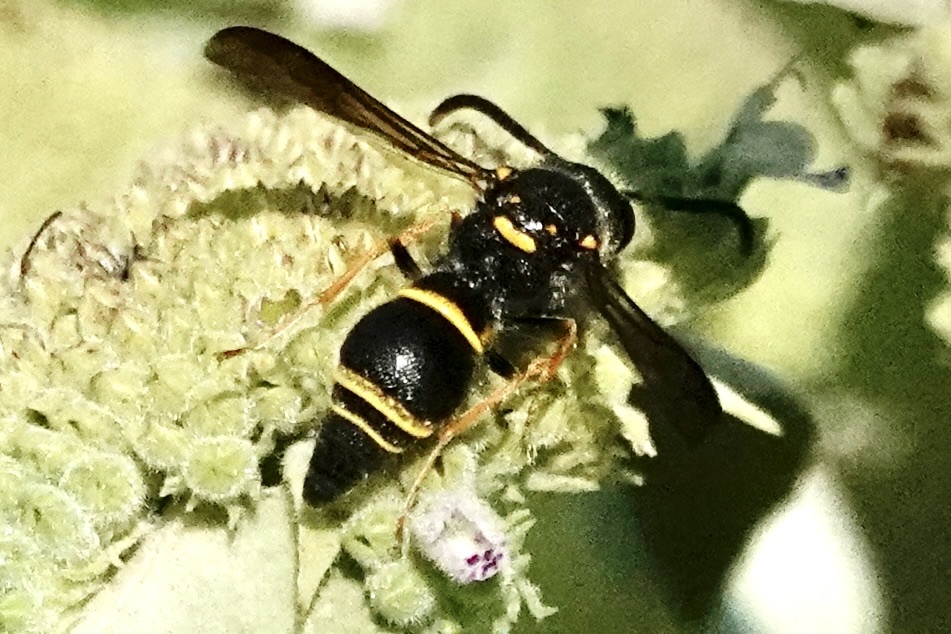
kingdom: Animalia
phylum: Arthropoda
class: Insecta
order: Hymenoptera
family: Vespidae
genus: Ancistrocerus
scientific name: Ancistrocerus campestris
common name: Smiling mason wasp
